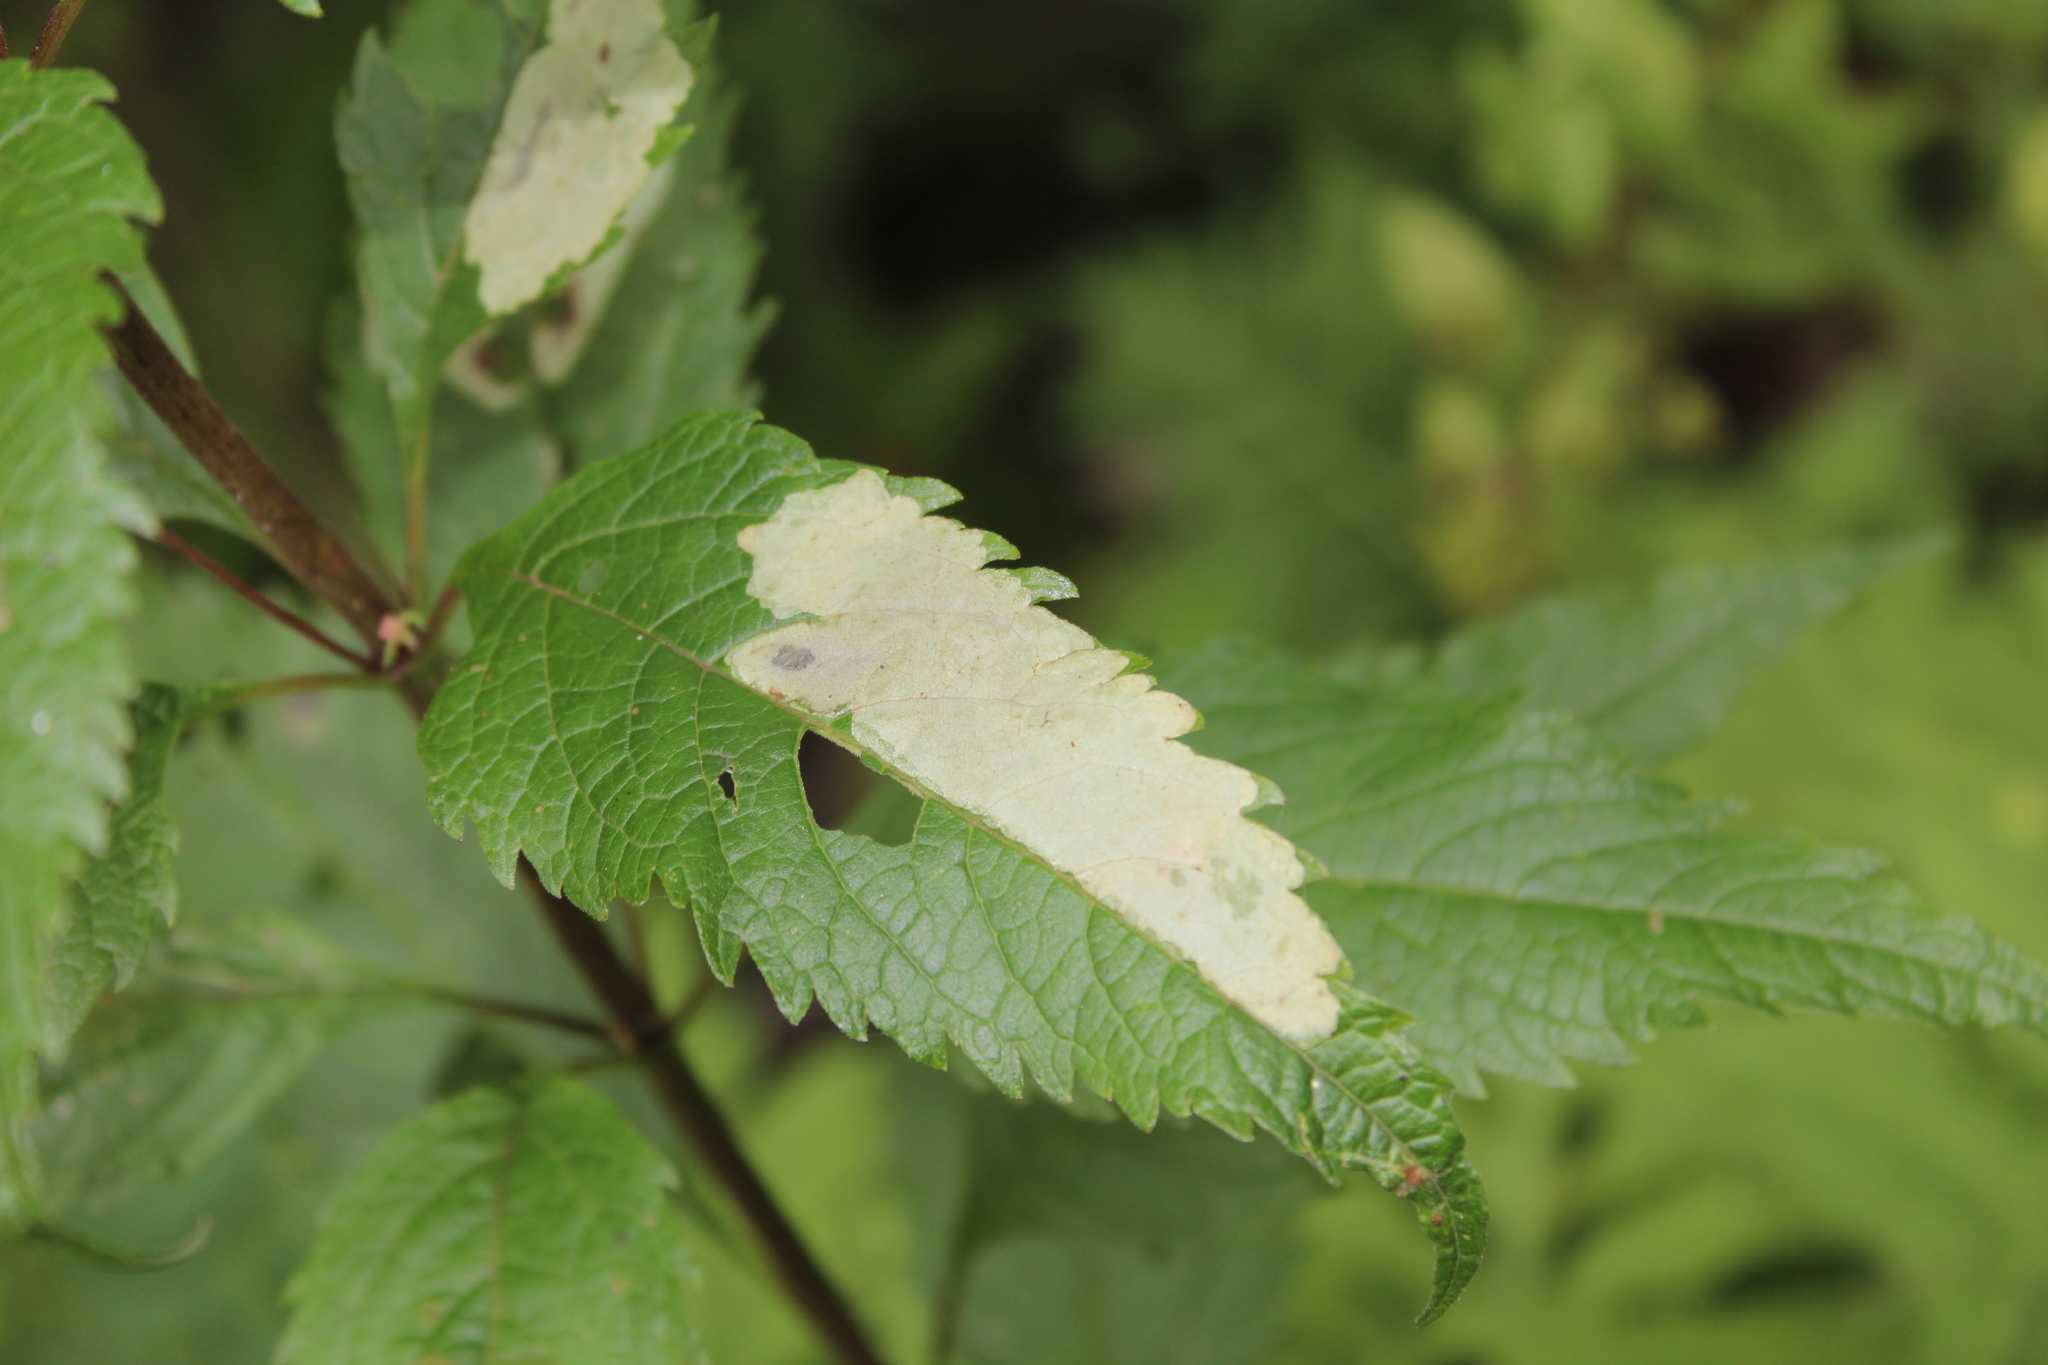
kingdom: Animalia
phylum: Arthropoda
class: Insecta
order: Diptera
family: Agromyzidae
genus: Calycomyza
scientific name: Calycomyza flavinotum
